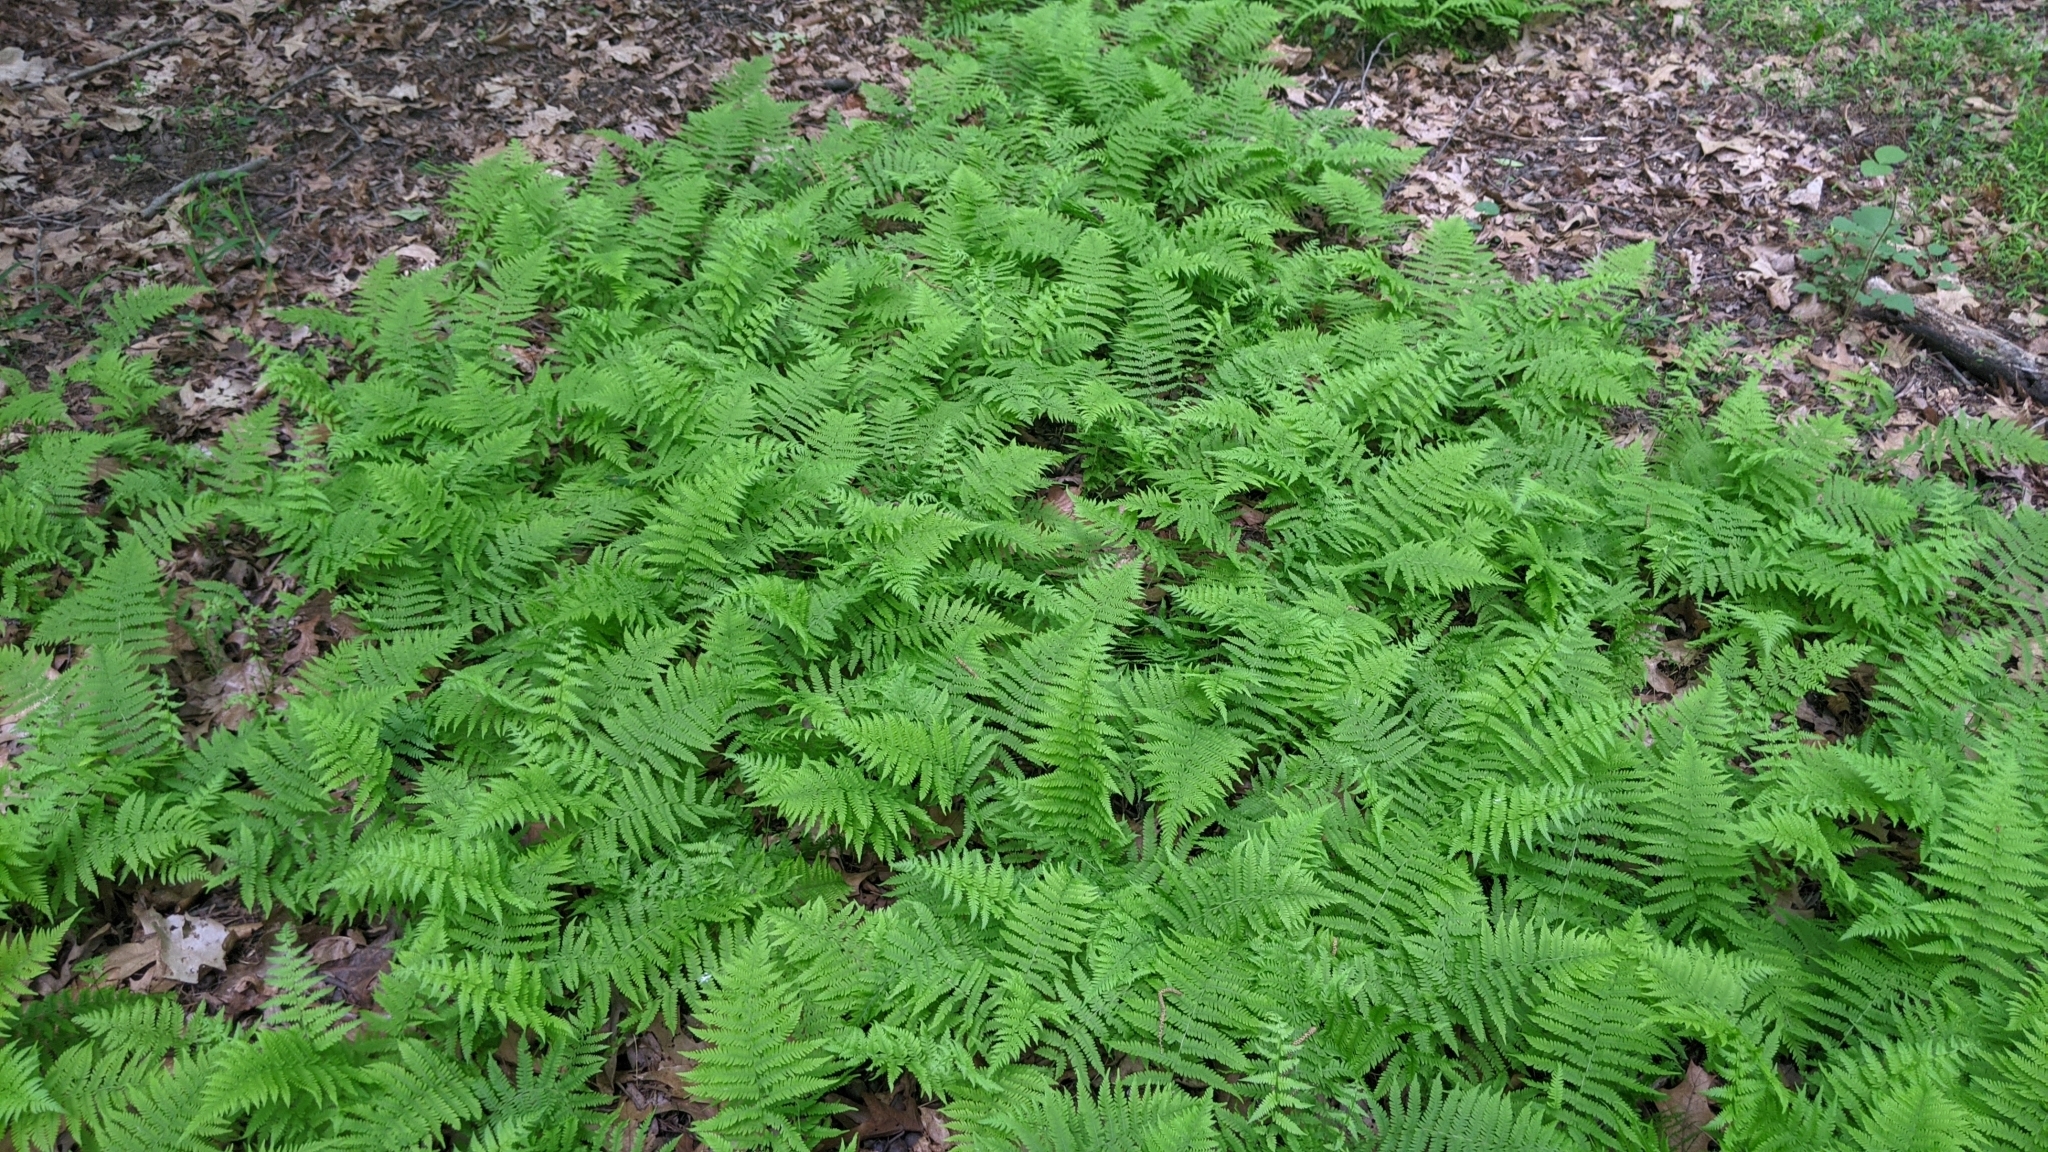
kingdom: Plantae
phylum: Tracheophyta
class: Polypodiopsida
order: Polypodiales
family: Thelypteridaceae
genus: Amauropelta
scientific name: Amauropelta noveboracensis
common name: New york fern
